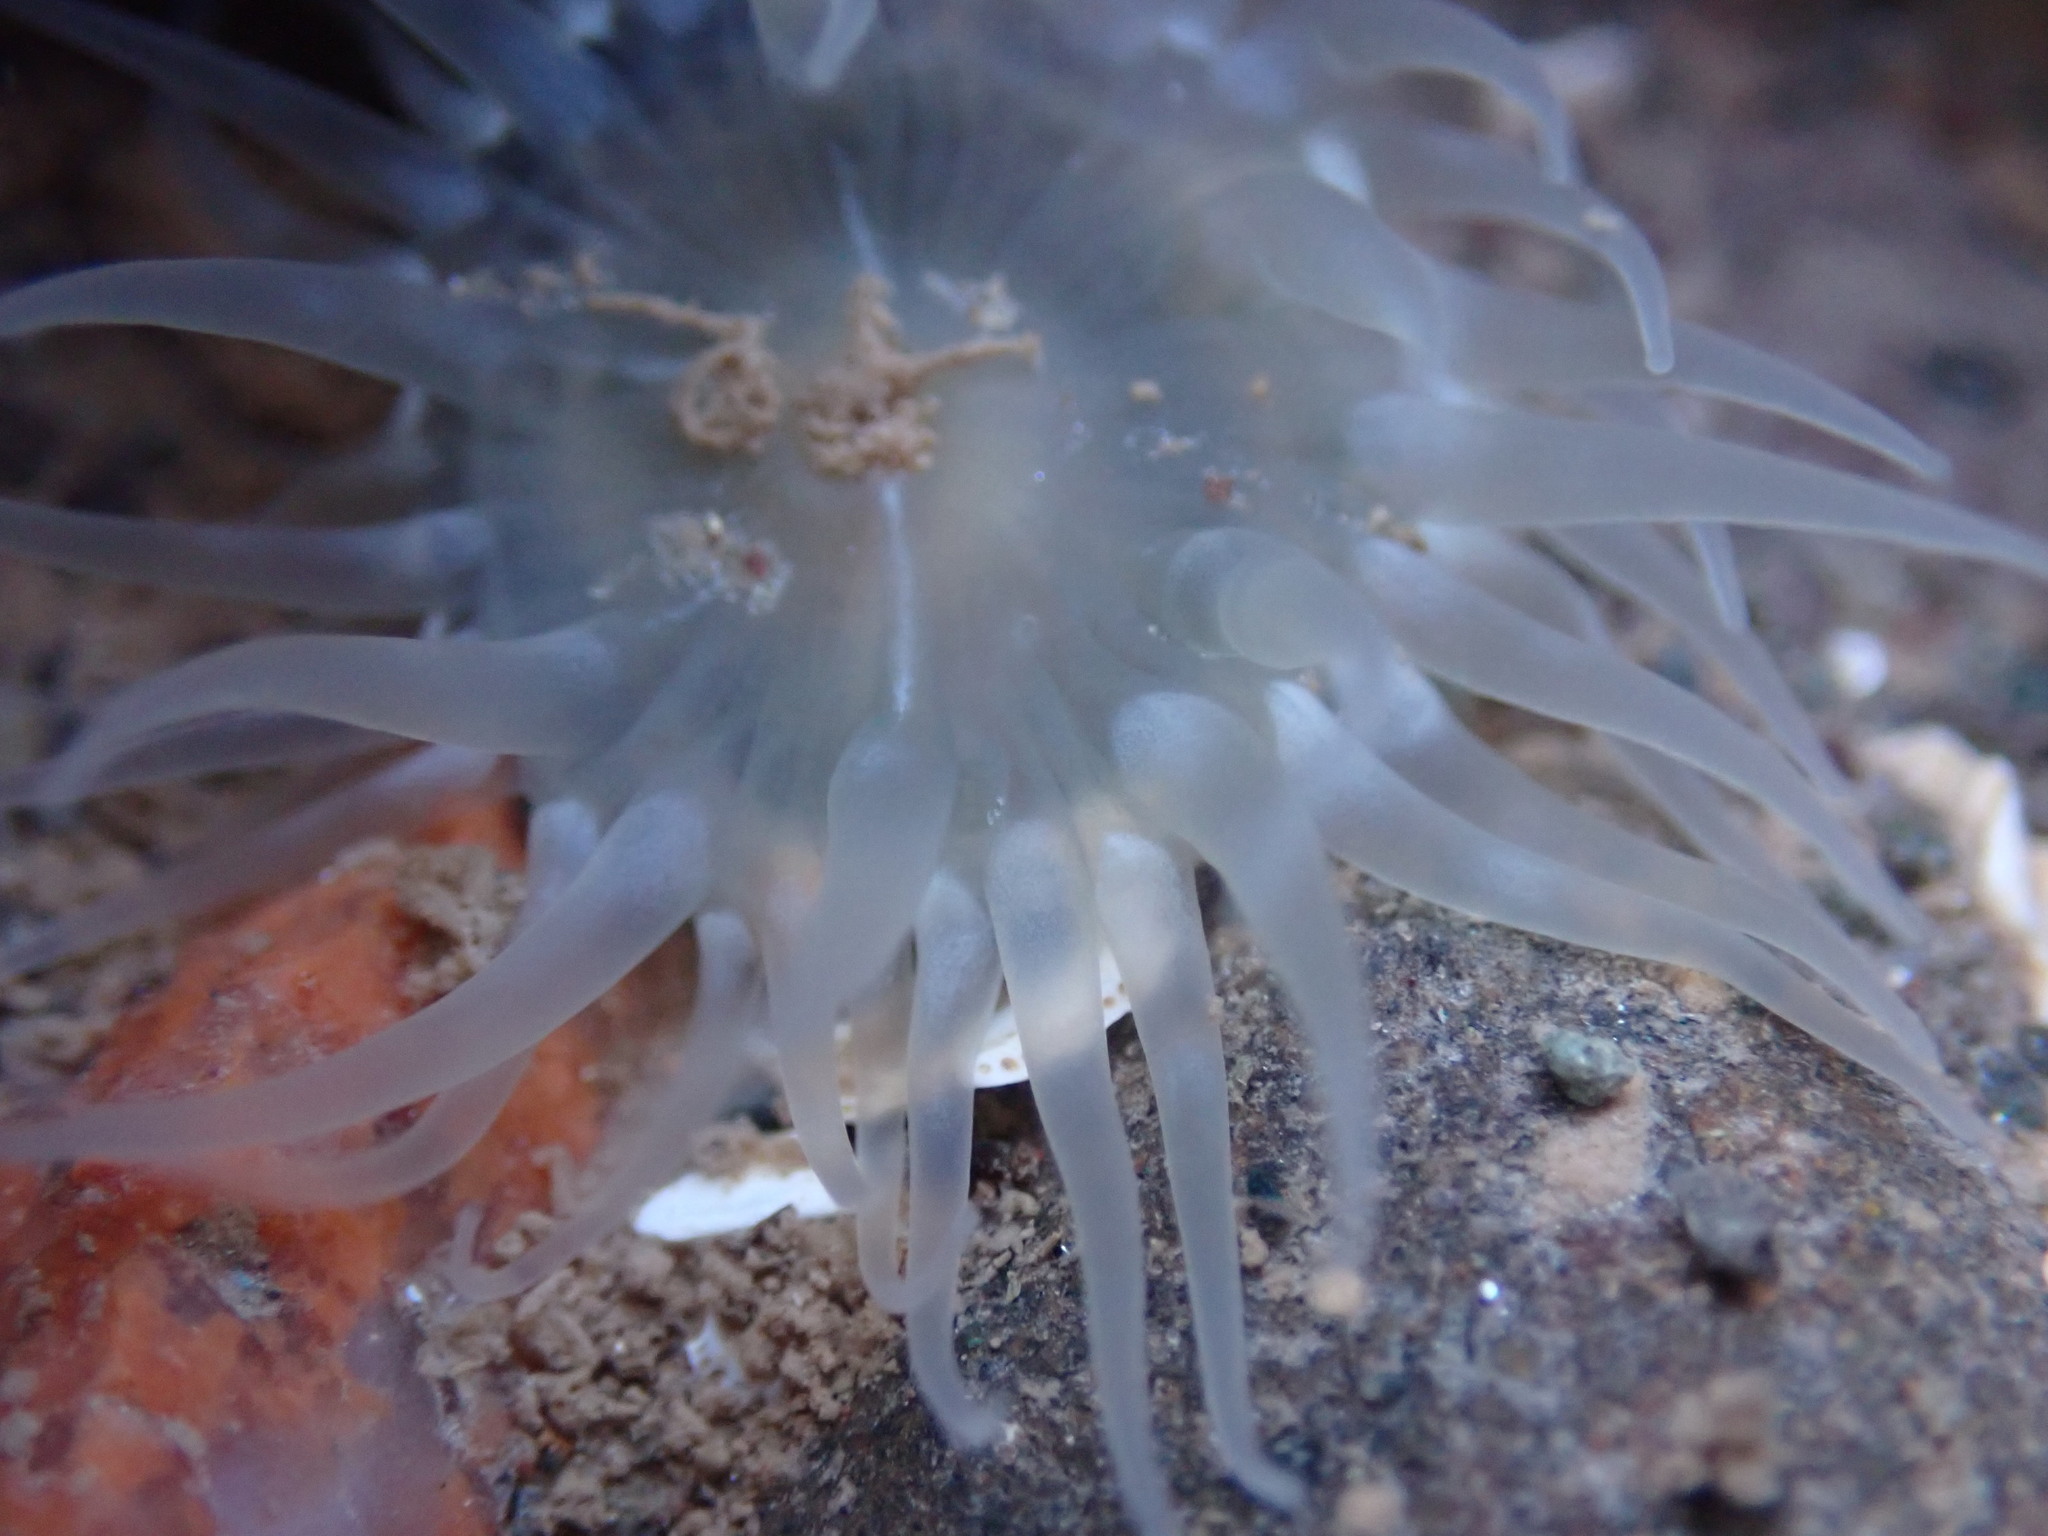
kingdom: Animalia
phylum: Cnidaria
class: Anthozoa
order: Actiniaria
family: Actiniidae
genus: Aulactinia
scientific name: Aulactinia stella
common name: Silver-spotted sea anemone
